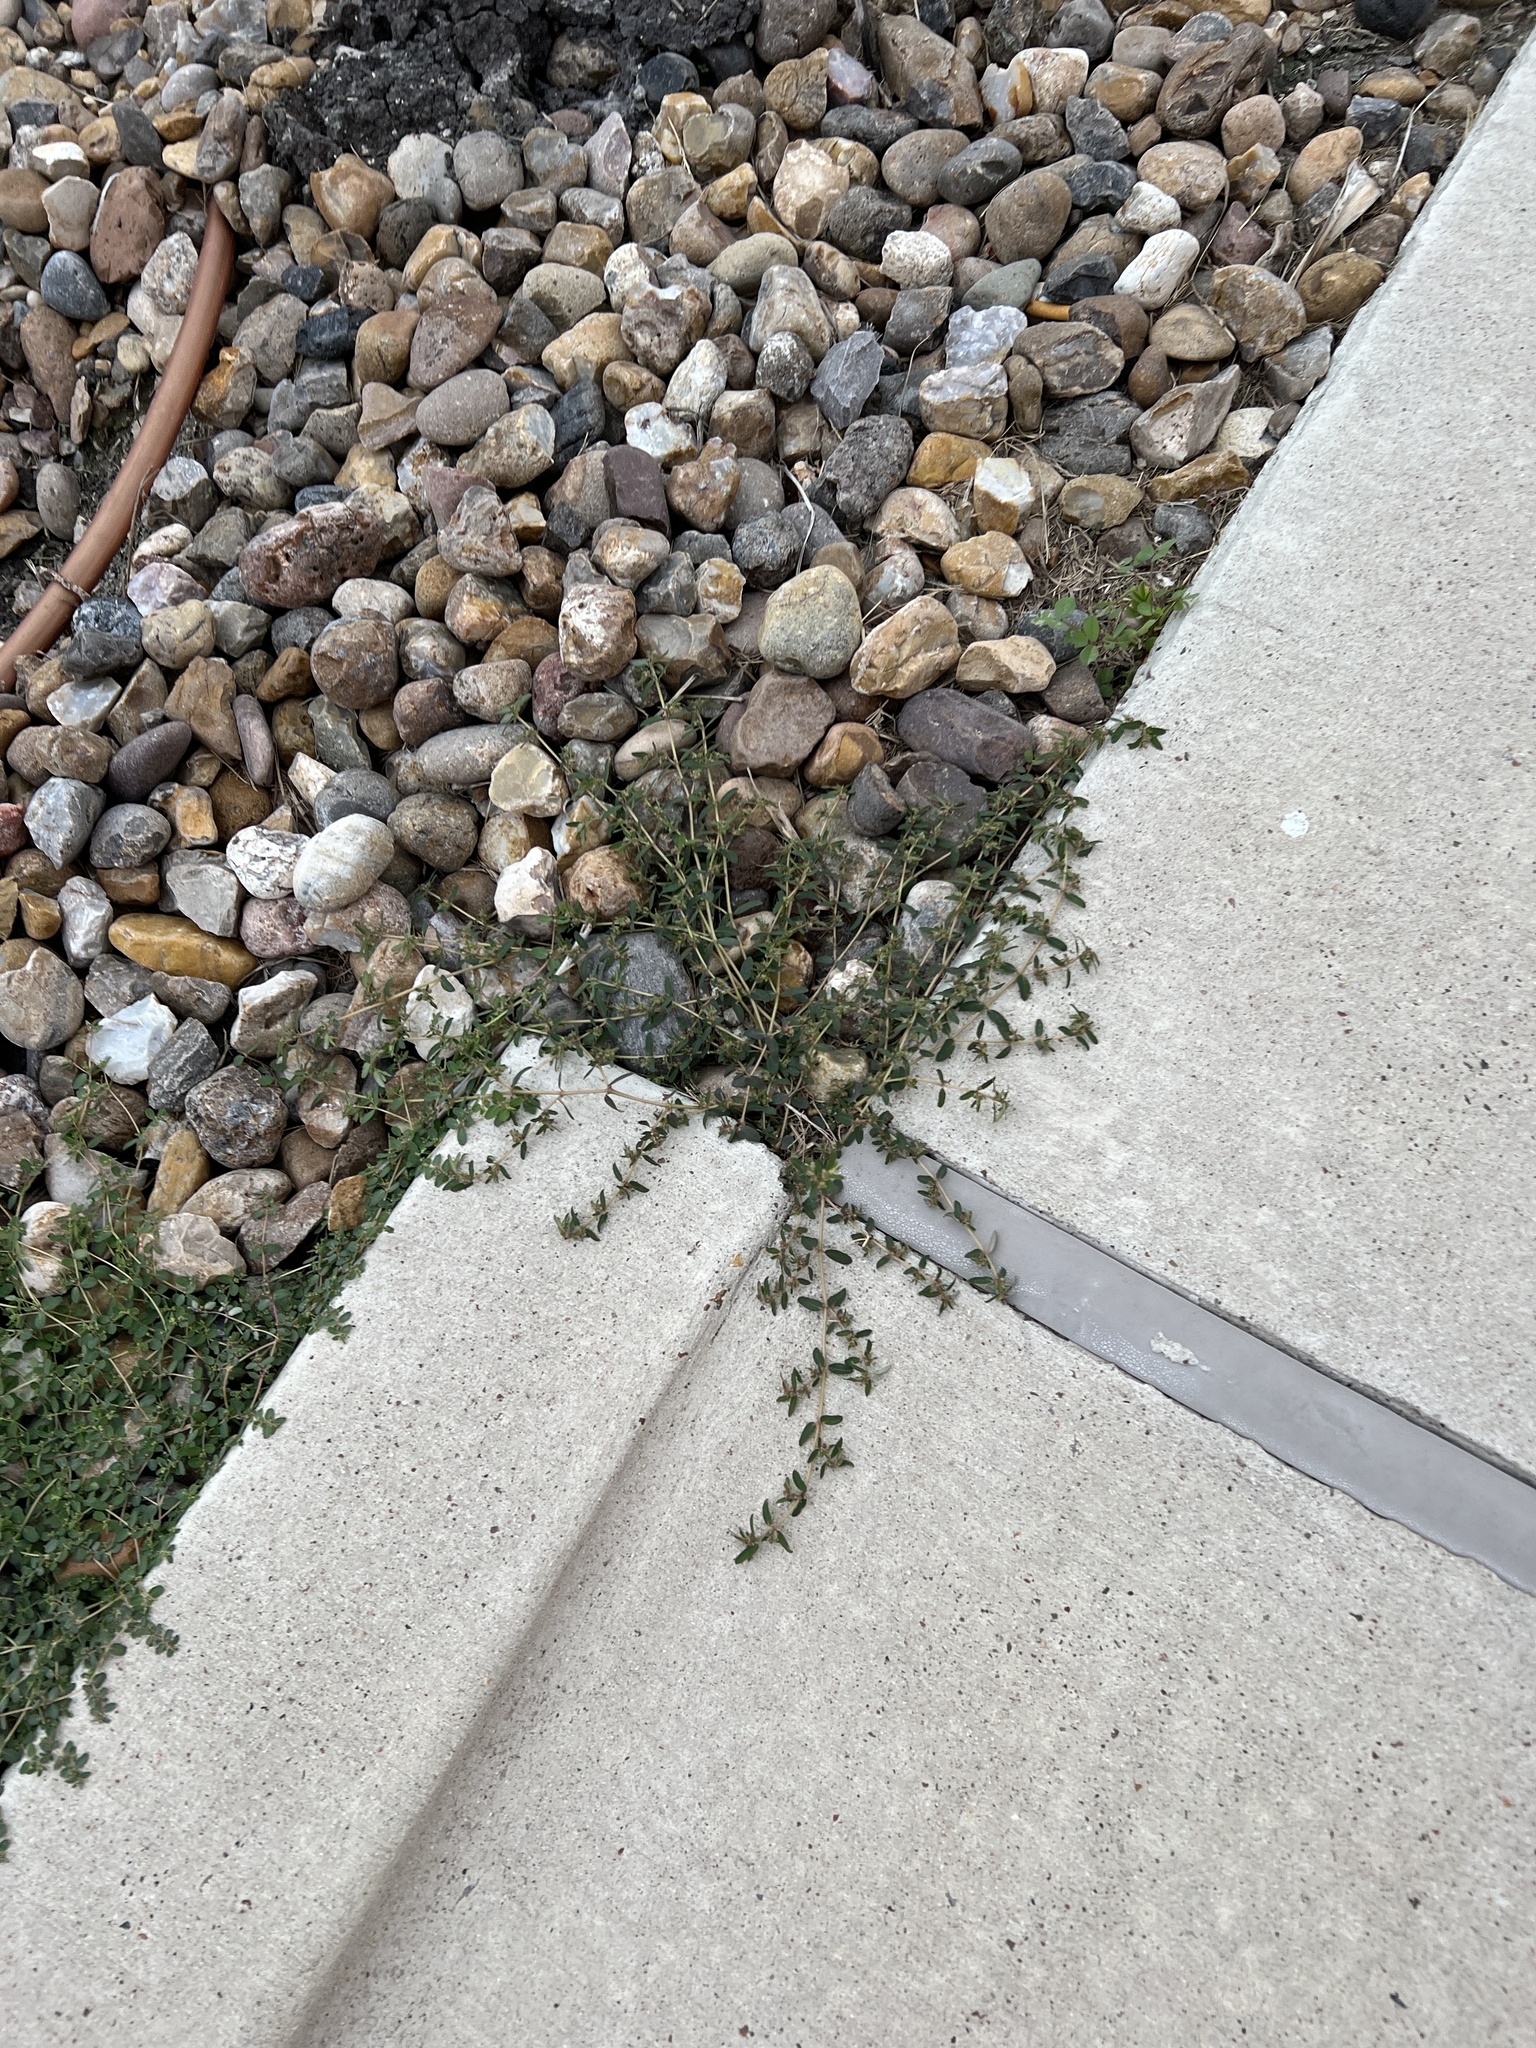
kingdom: Plantae
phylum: Tracheophyta
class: Magnoliopsida
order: Malpighiales
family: Euphorbiaceae
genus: Euphorbia
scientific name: Euphorbia maculata
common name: Spotted spurge
